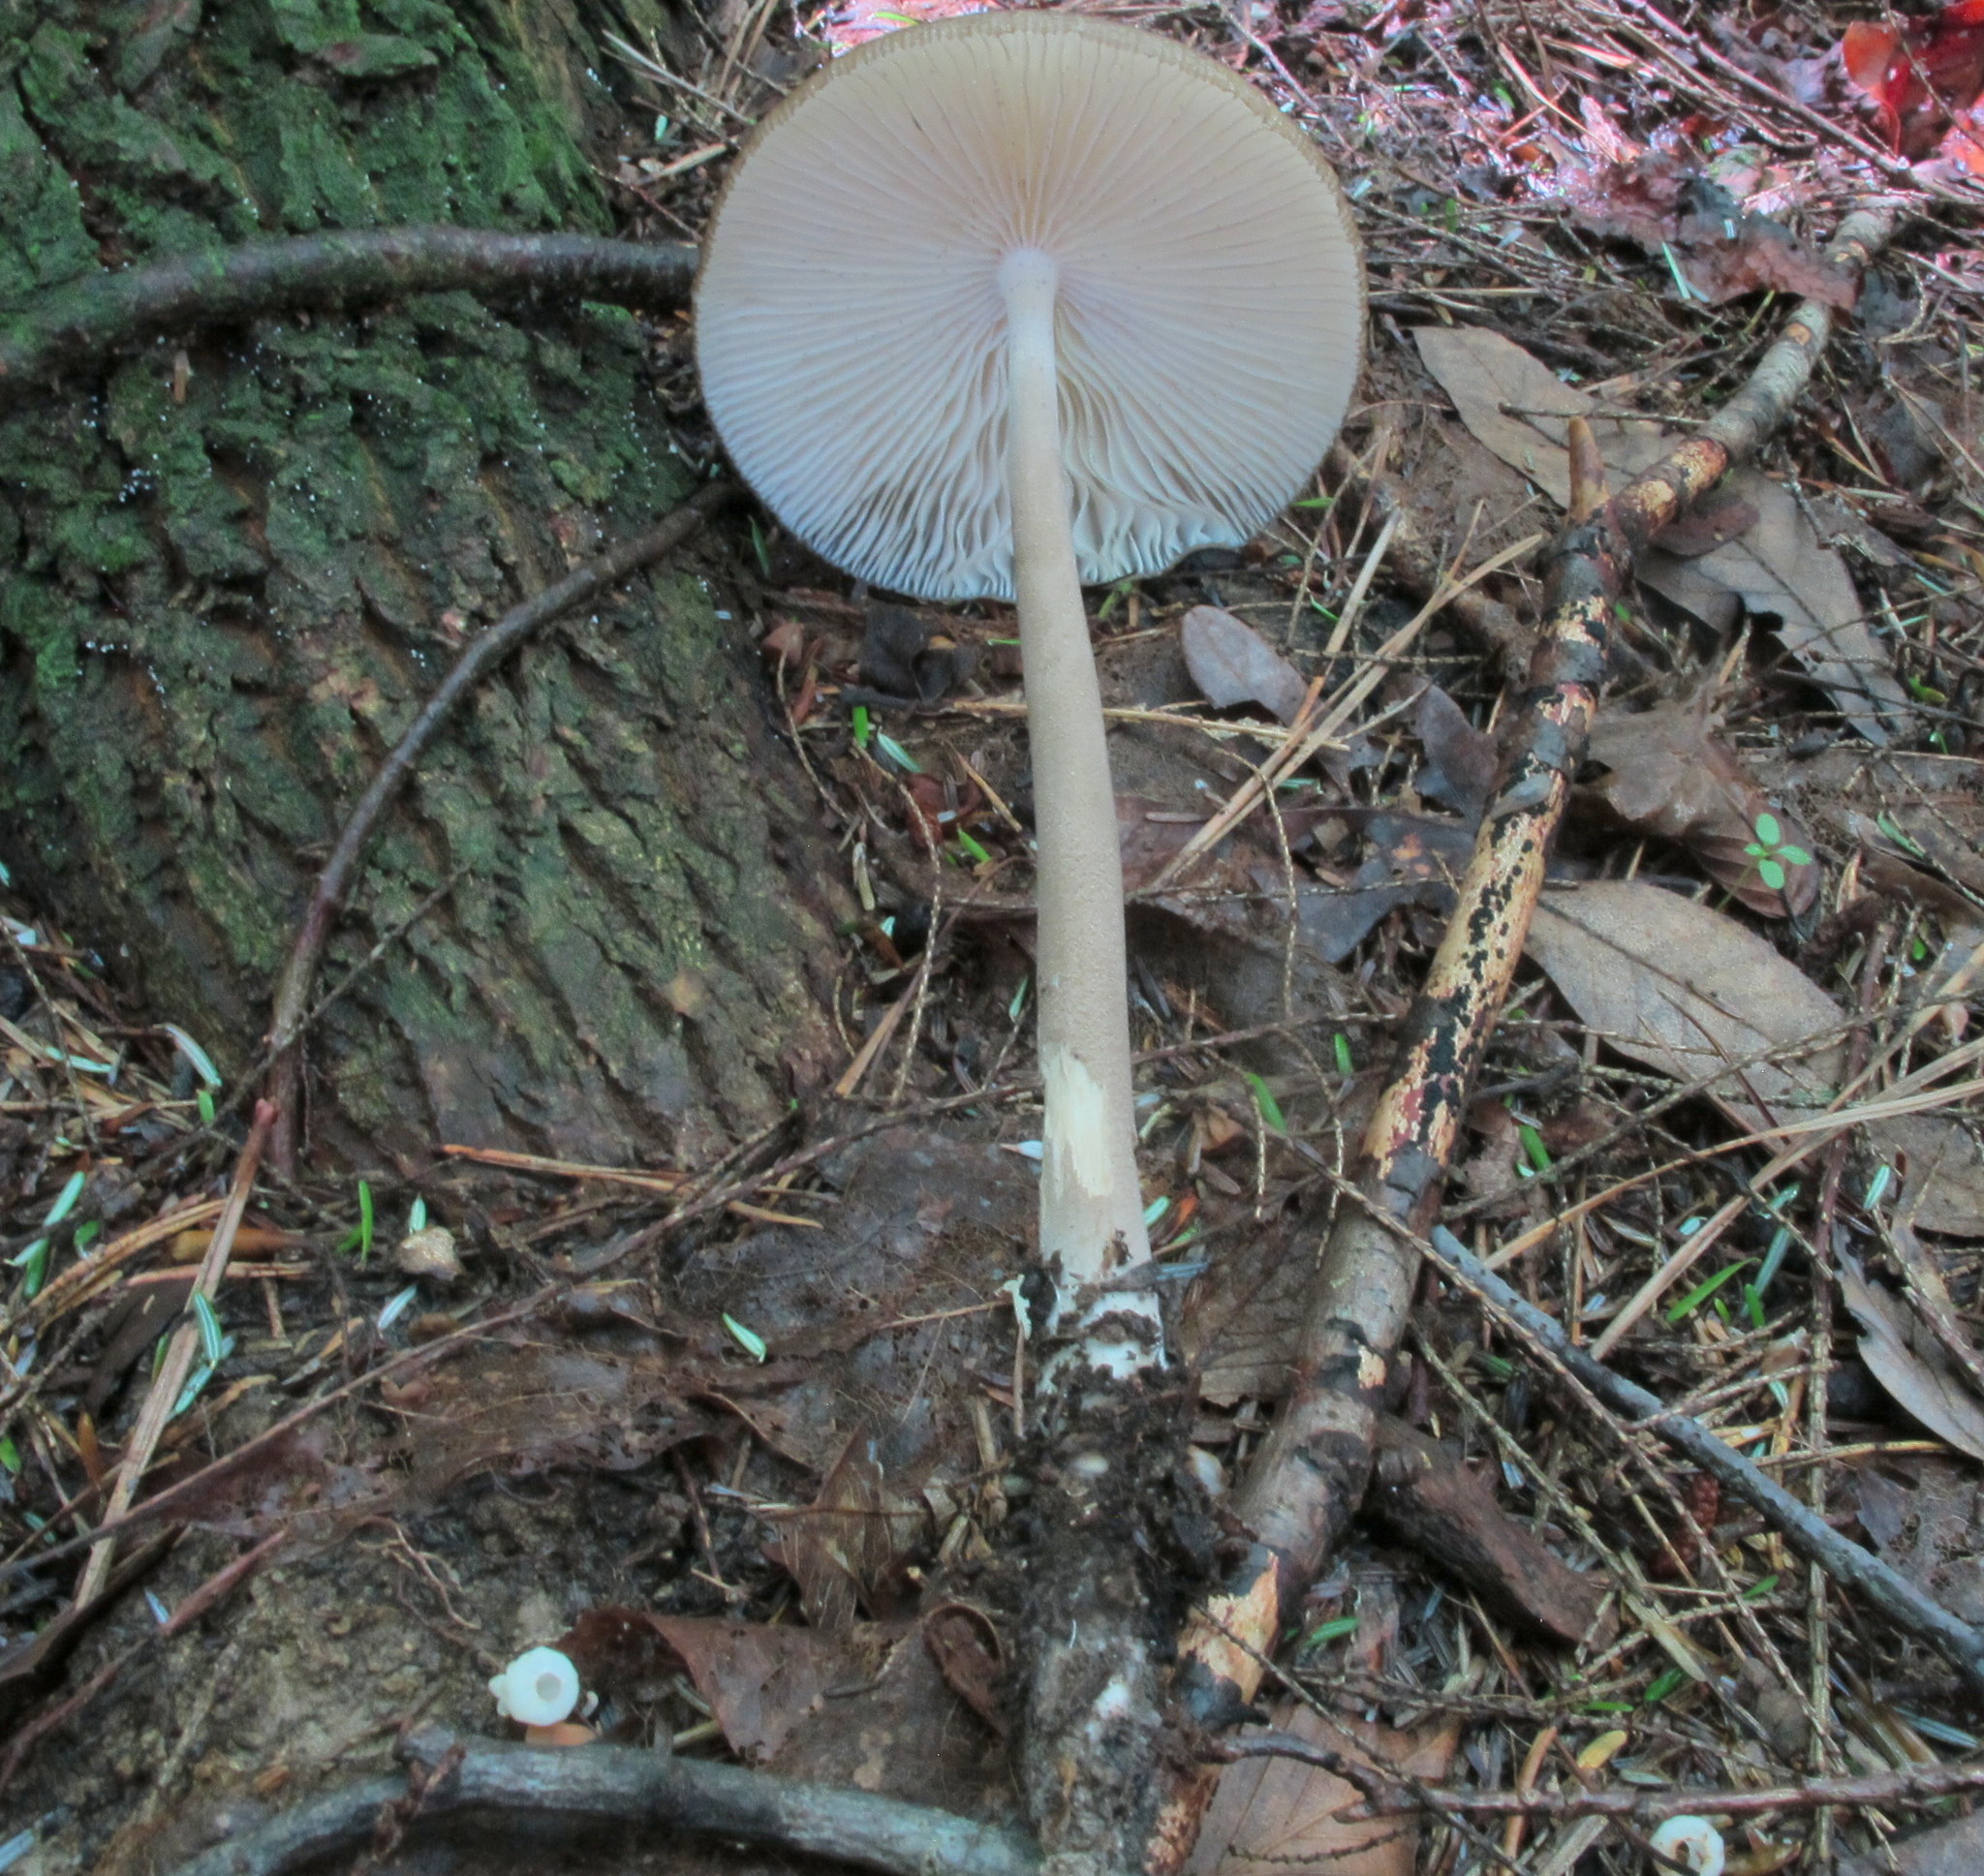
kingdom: Fungi
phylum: Basidiomycota
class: Agaricomycetes
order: Agaricales
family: Physalacriaceae
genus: Hymenopellis
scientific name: Hymenopellis sinapicolor
